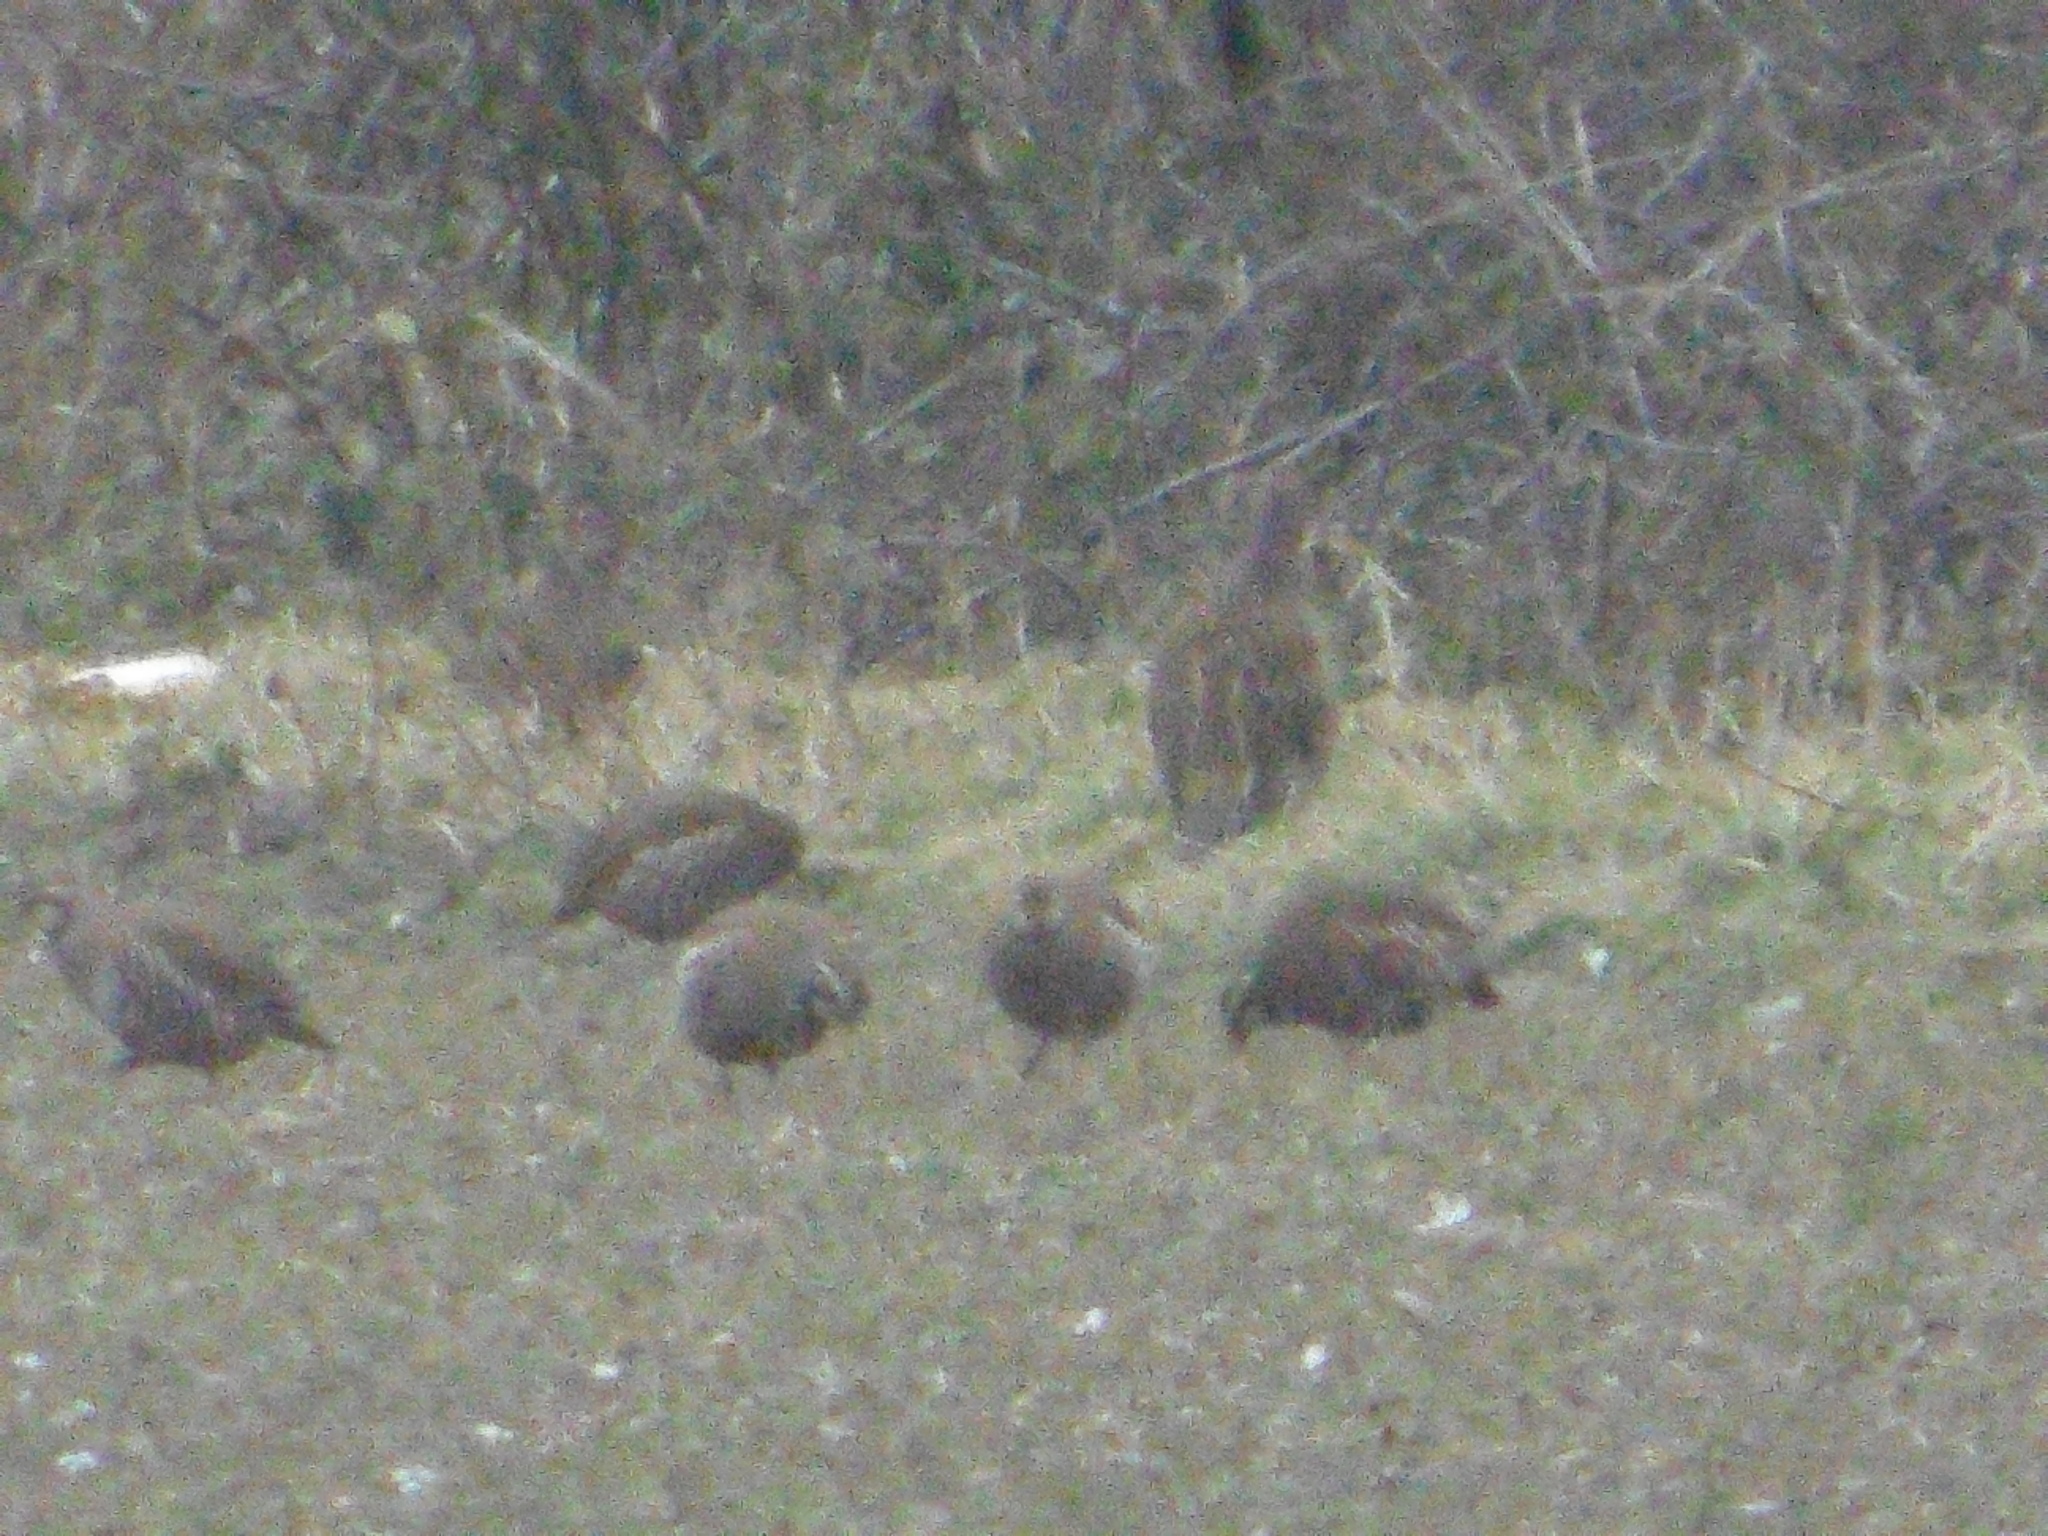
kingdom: Animalia
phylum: Chordata
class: Aves
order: Galliformes
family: Phasianidae
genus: Alectoris
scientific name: Alectoris rufa
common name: Red-legged partridge
